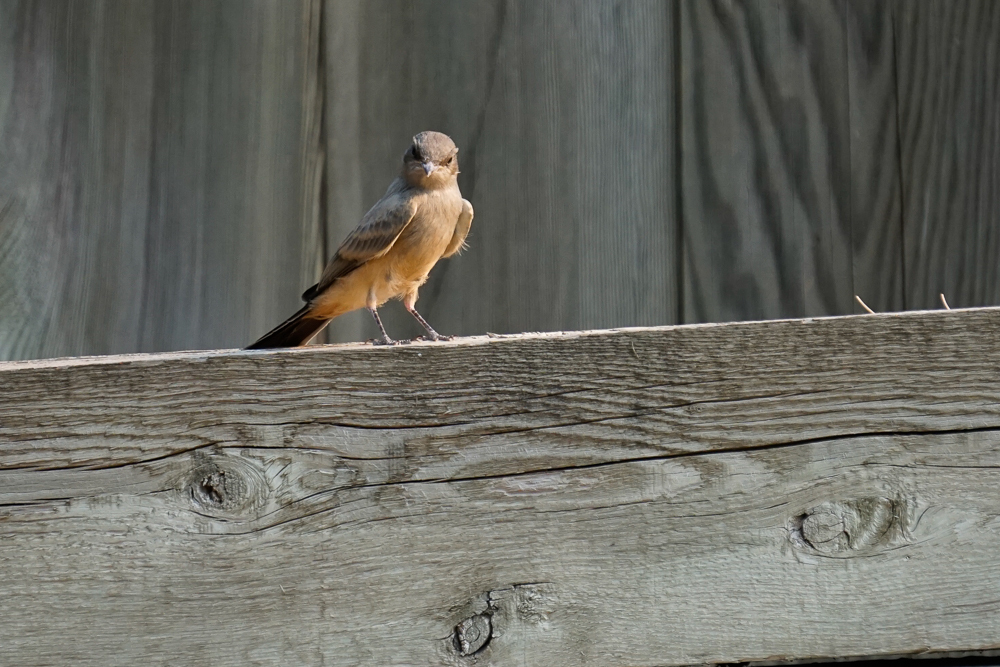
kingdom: Animalia
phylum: Chordata
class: Aves
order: Passeriformes
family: Tyrannidae
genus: Sayornis
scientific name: Sayornis saya
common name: Say's phoebe
